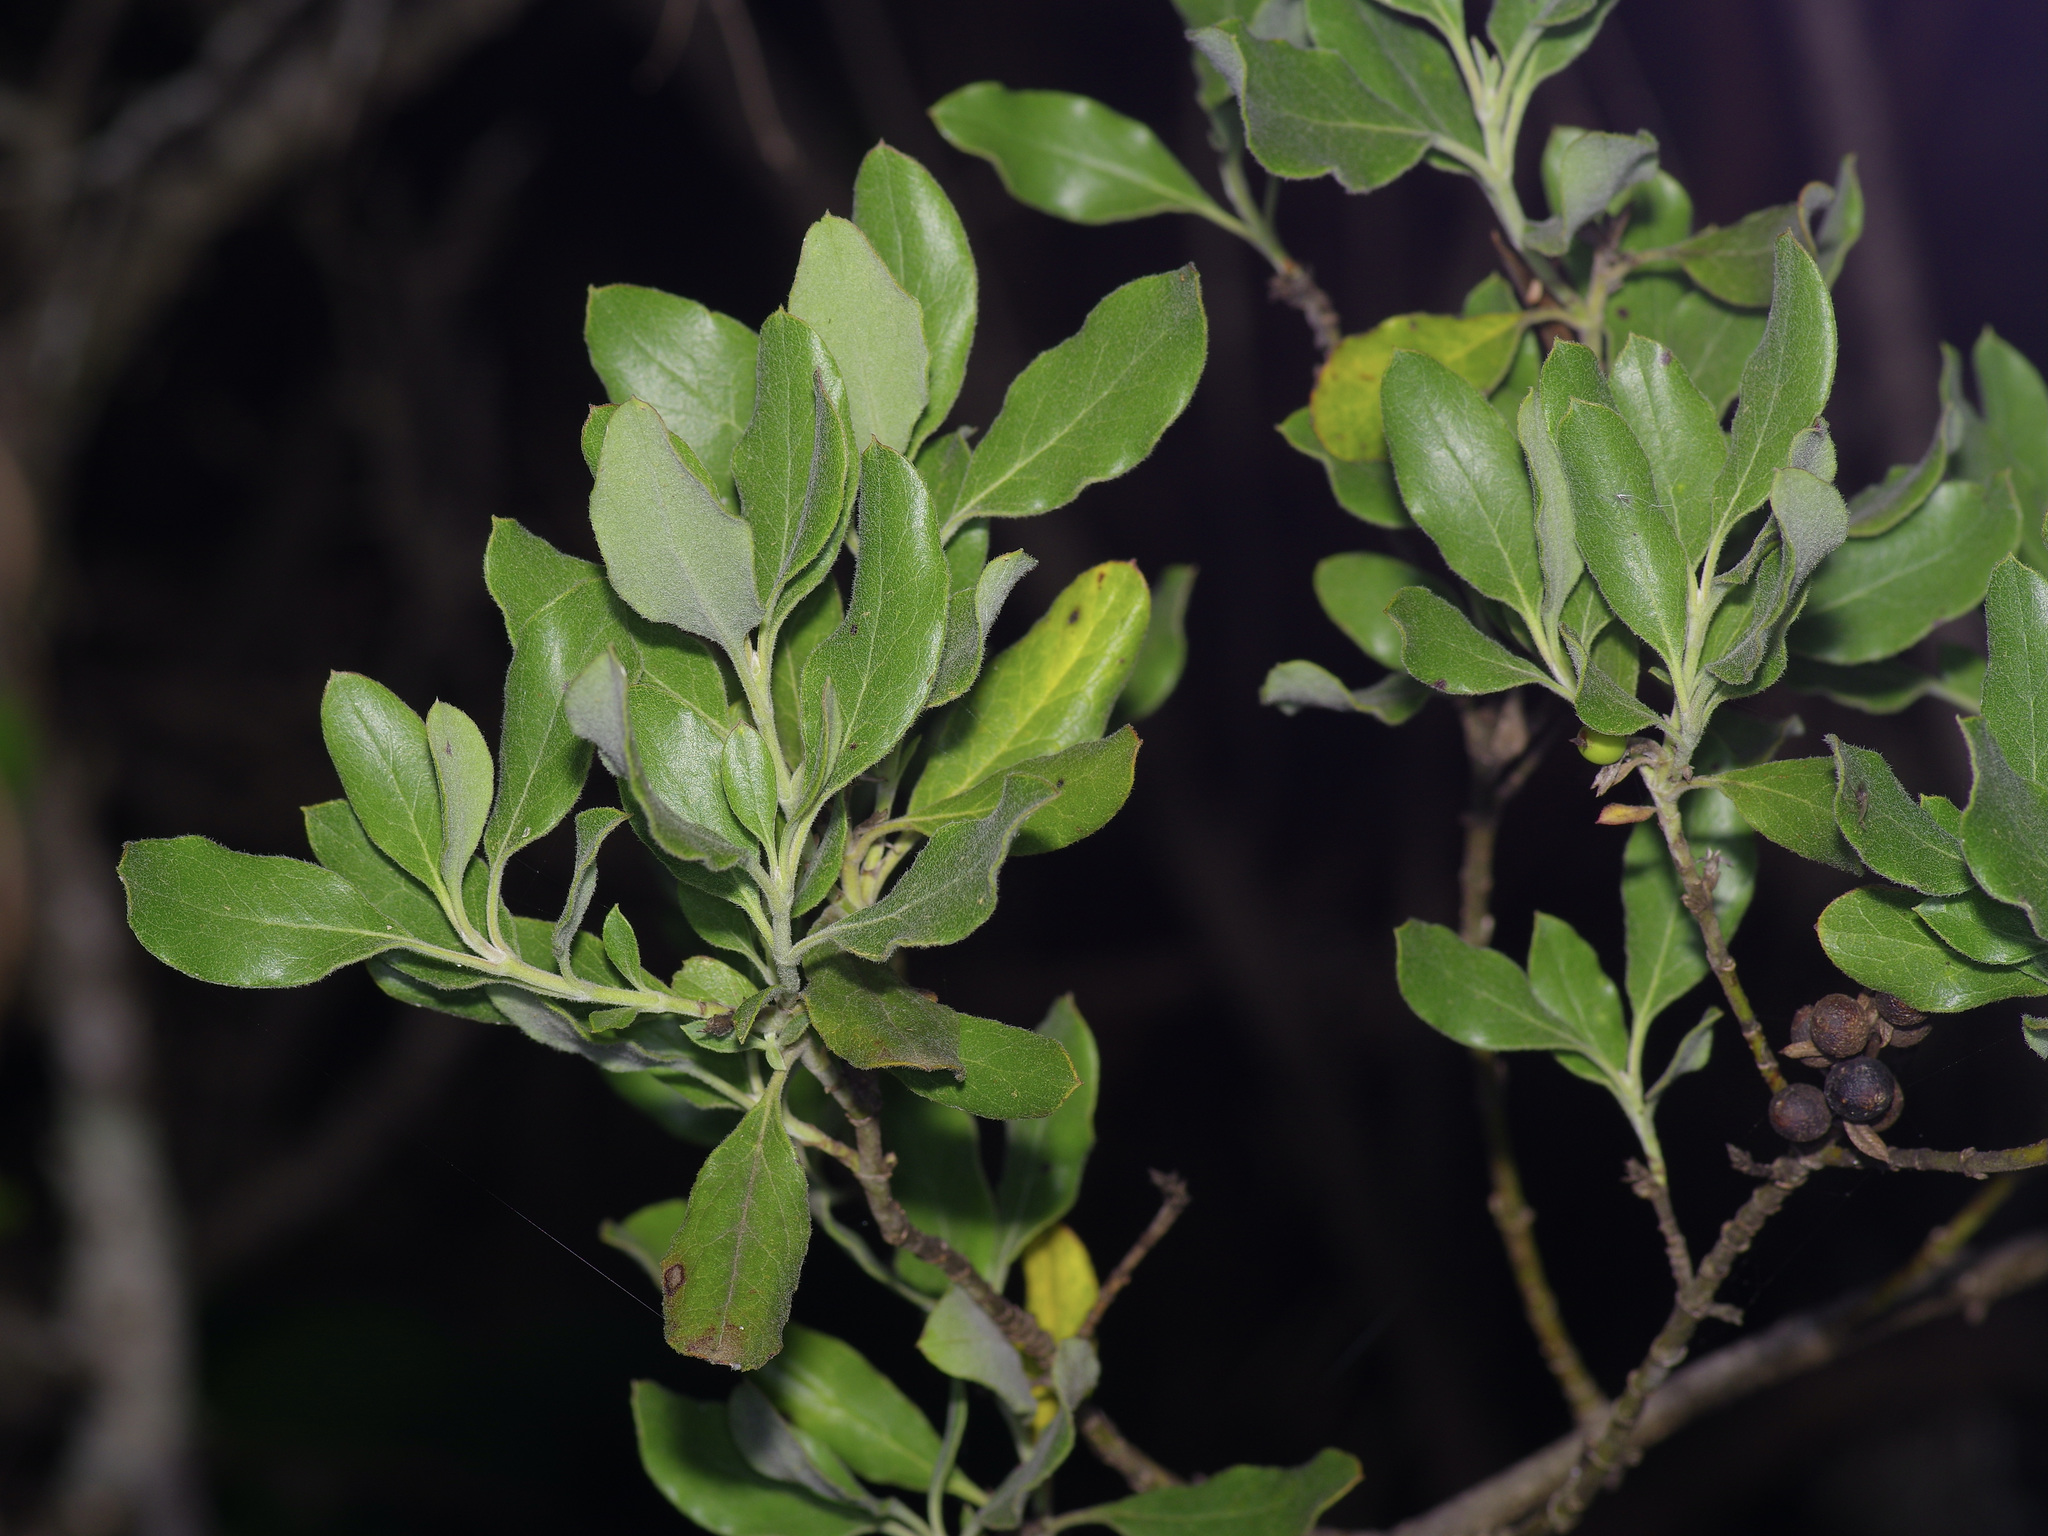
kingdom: Plantae
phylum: Tracheophyta
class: Magnoliopsida
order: Garryales
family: Garryaceae
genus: Garrya
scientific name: Garrya lindheimeri
